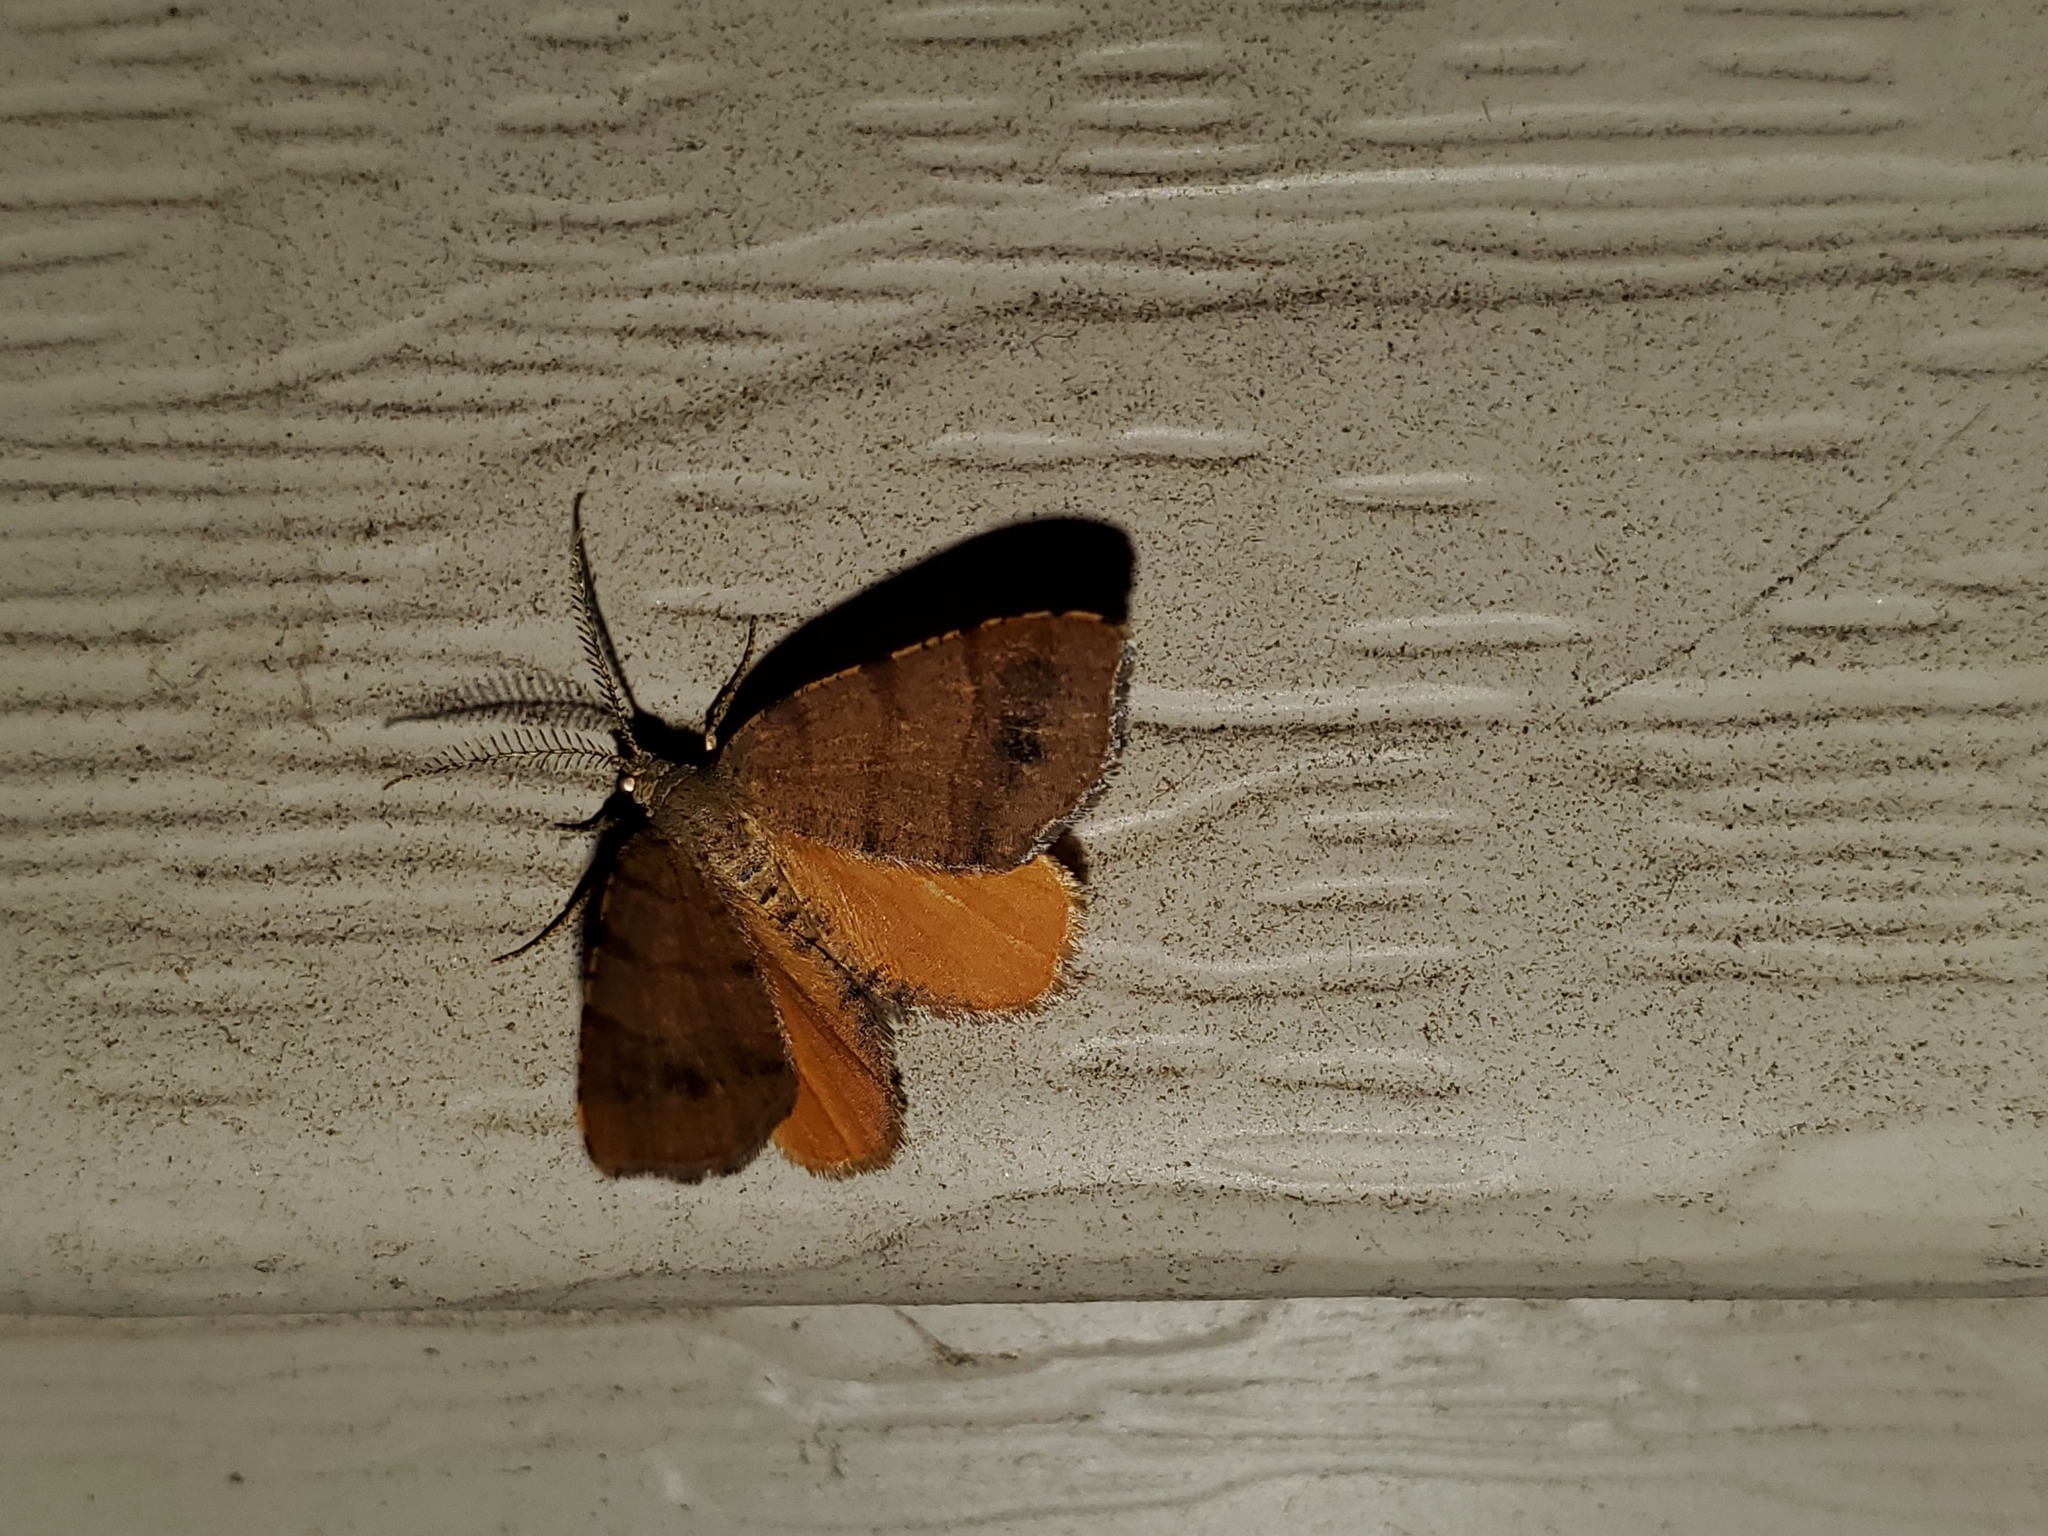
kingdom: Animalia
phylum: Arthropoda
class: Insecta
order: Lepidoptera
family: Geometridae
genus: Mellilla
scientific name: Mellilla xanthometata
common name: Orange wing moth
